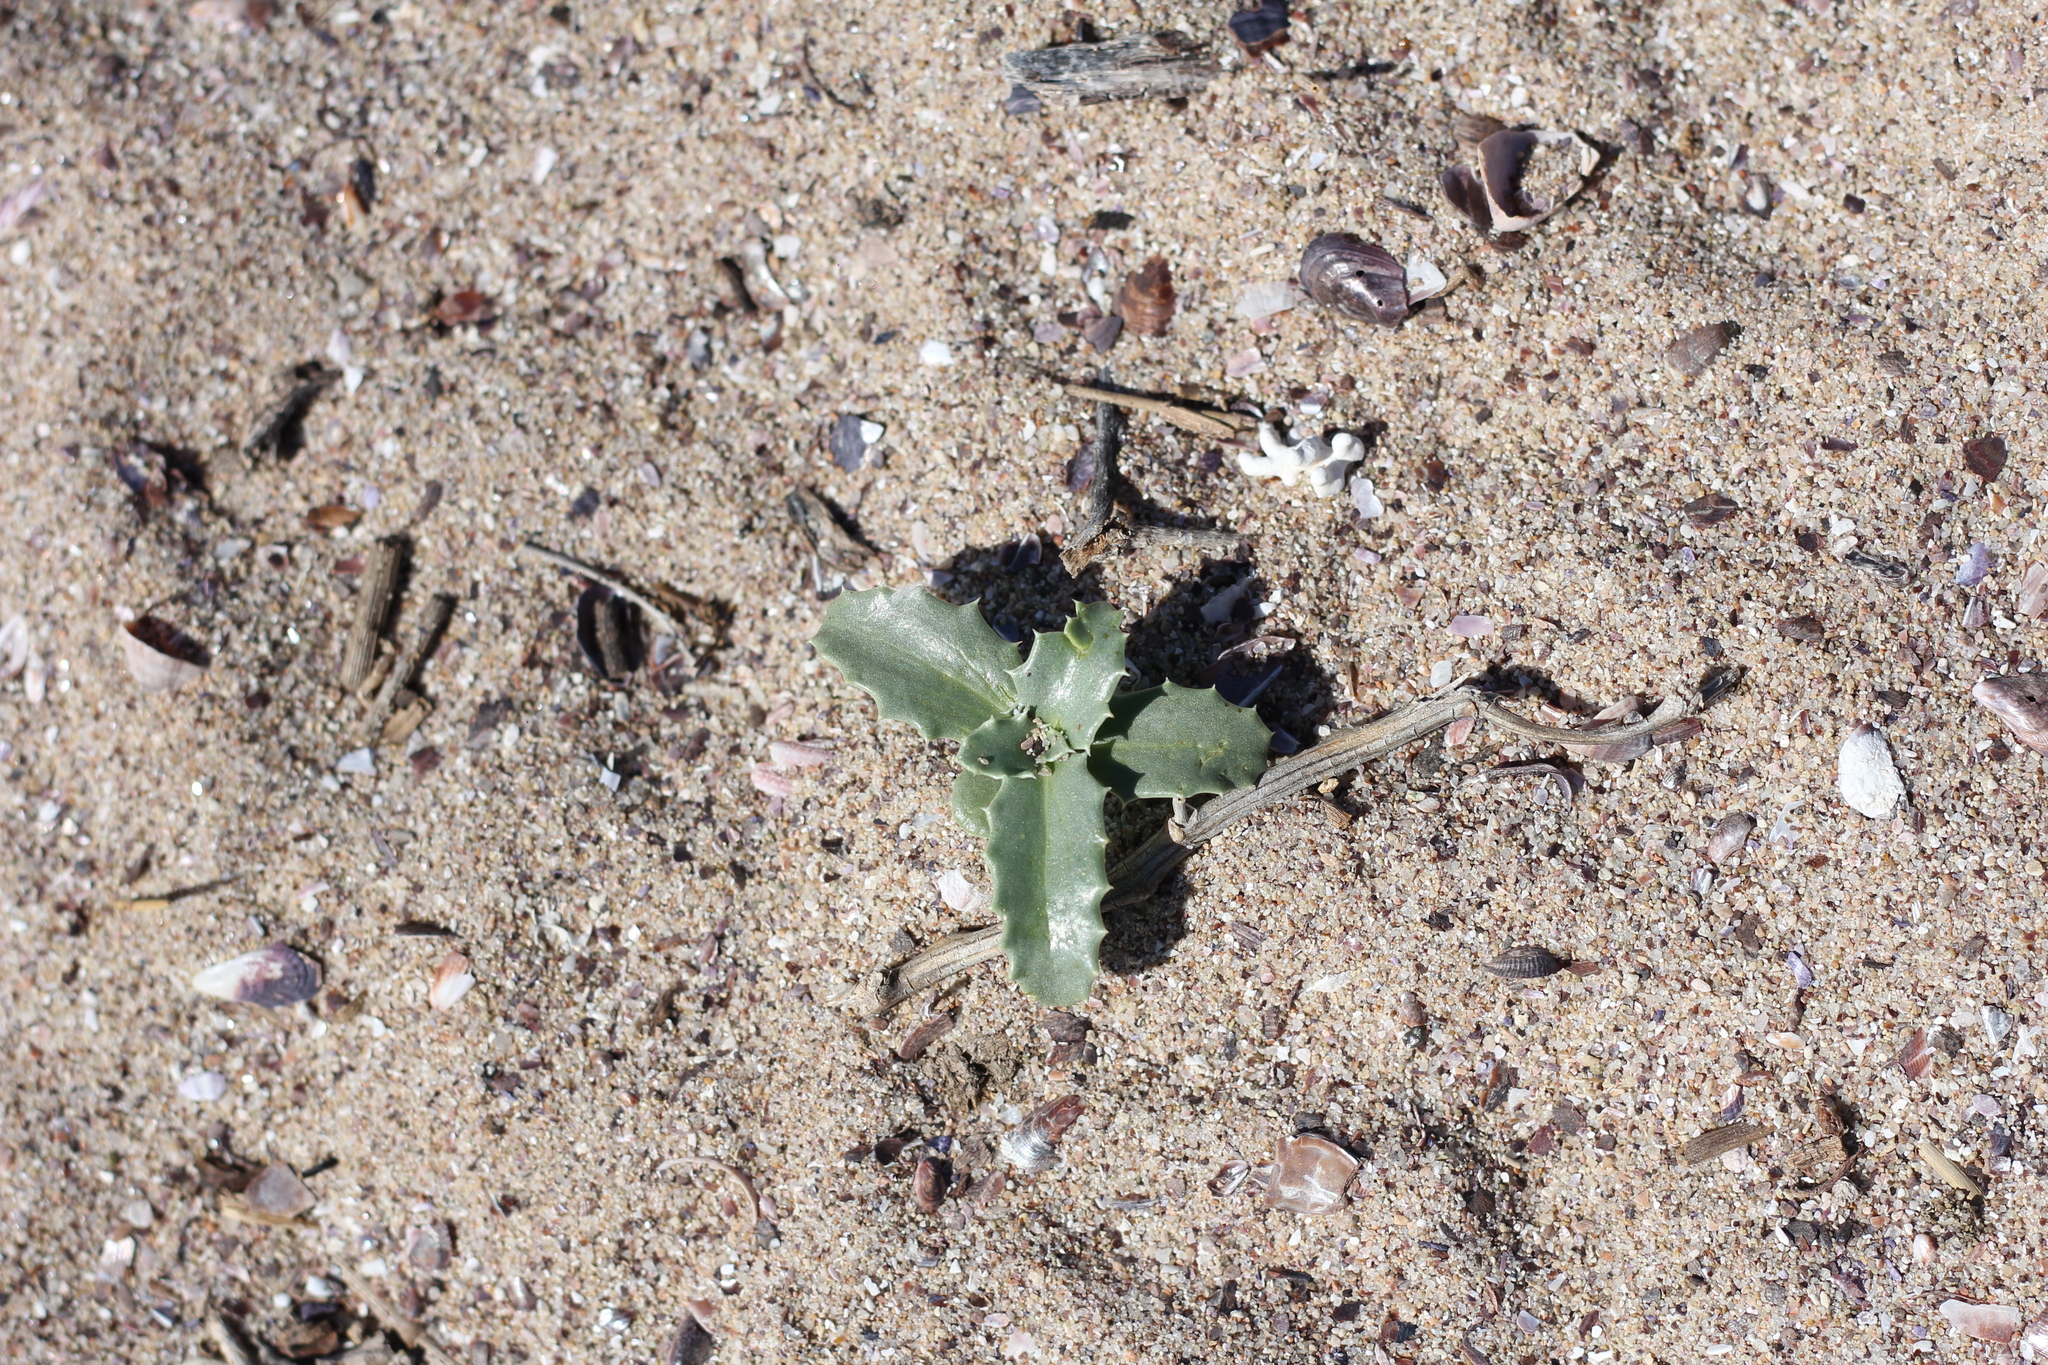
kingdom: Plantae
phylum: Tracheophyta
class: Magnoliopsida
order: Asterales
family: Calyceraceae
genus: Calycera
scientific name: Calycera crassifolia
